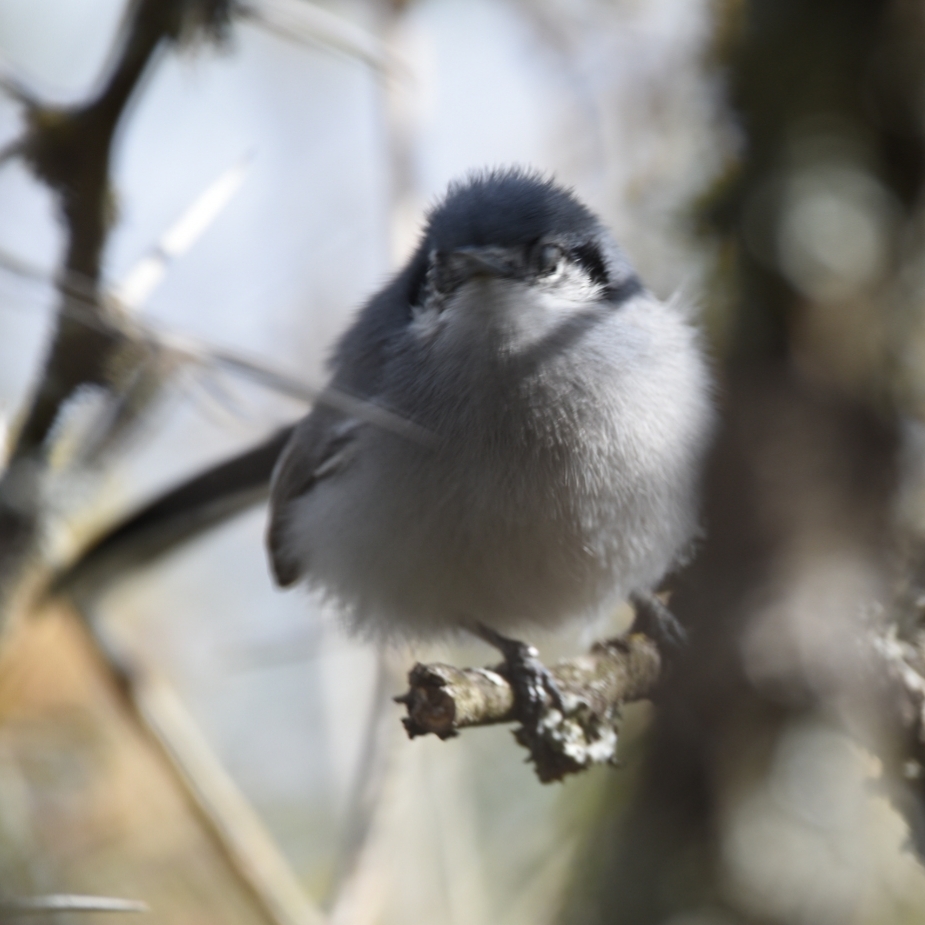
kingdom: Animalia
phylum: Chordata
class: Aves
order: Passeriformes
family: Polioptilidae
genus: Polioptila
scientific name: Polioptila dumicola
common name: Masked gnatcatcher
